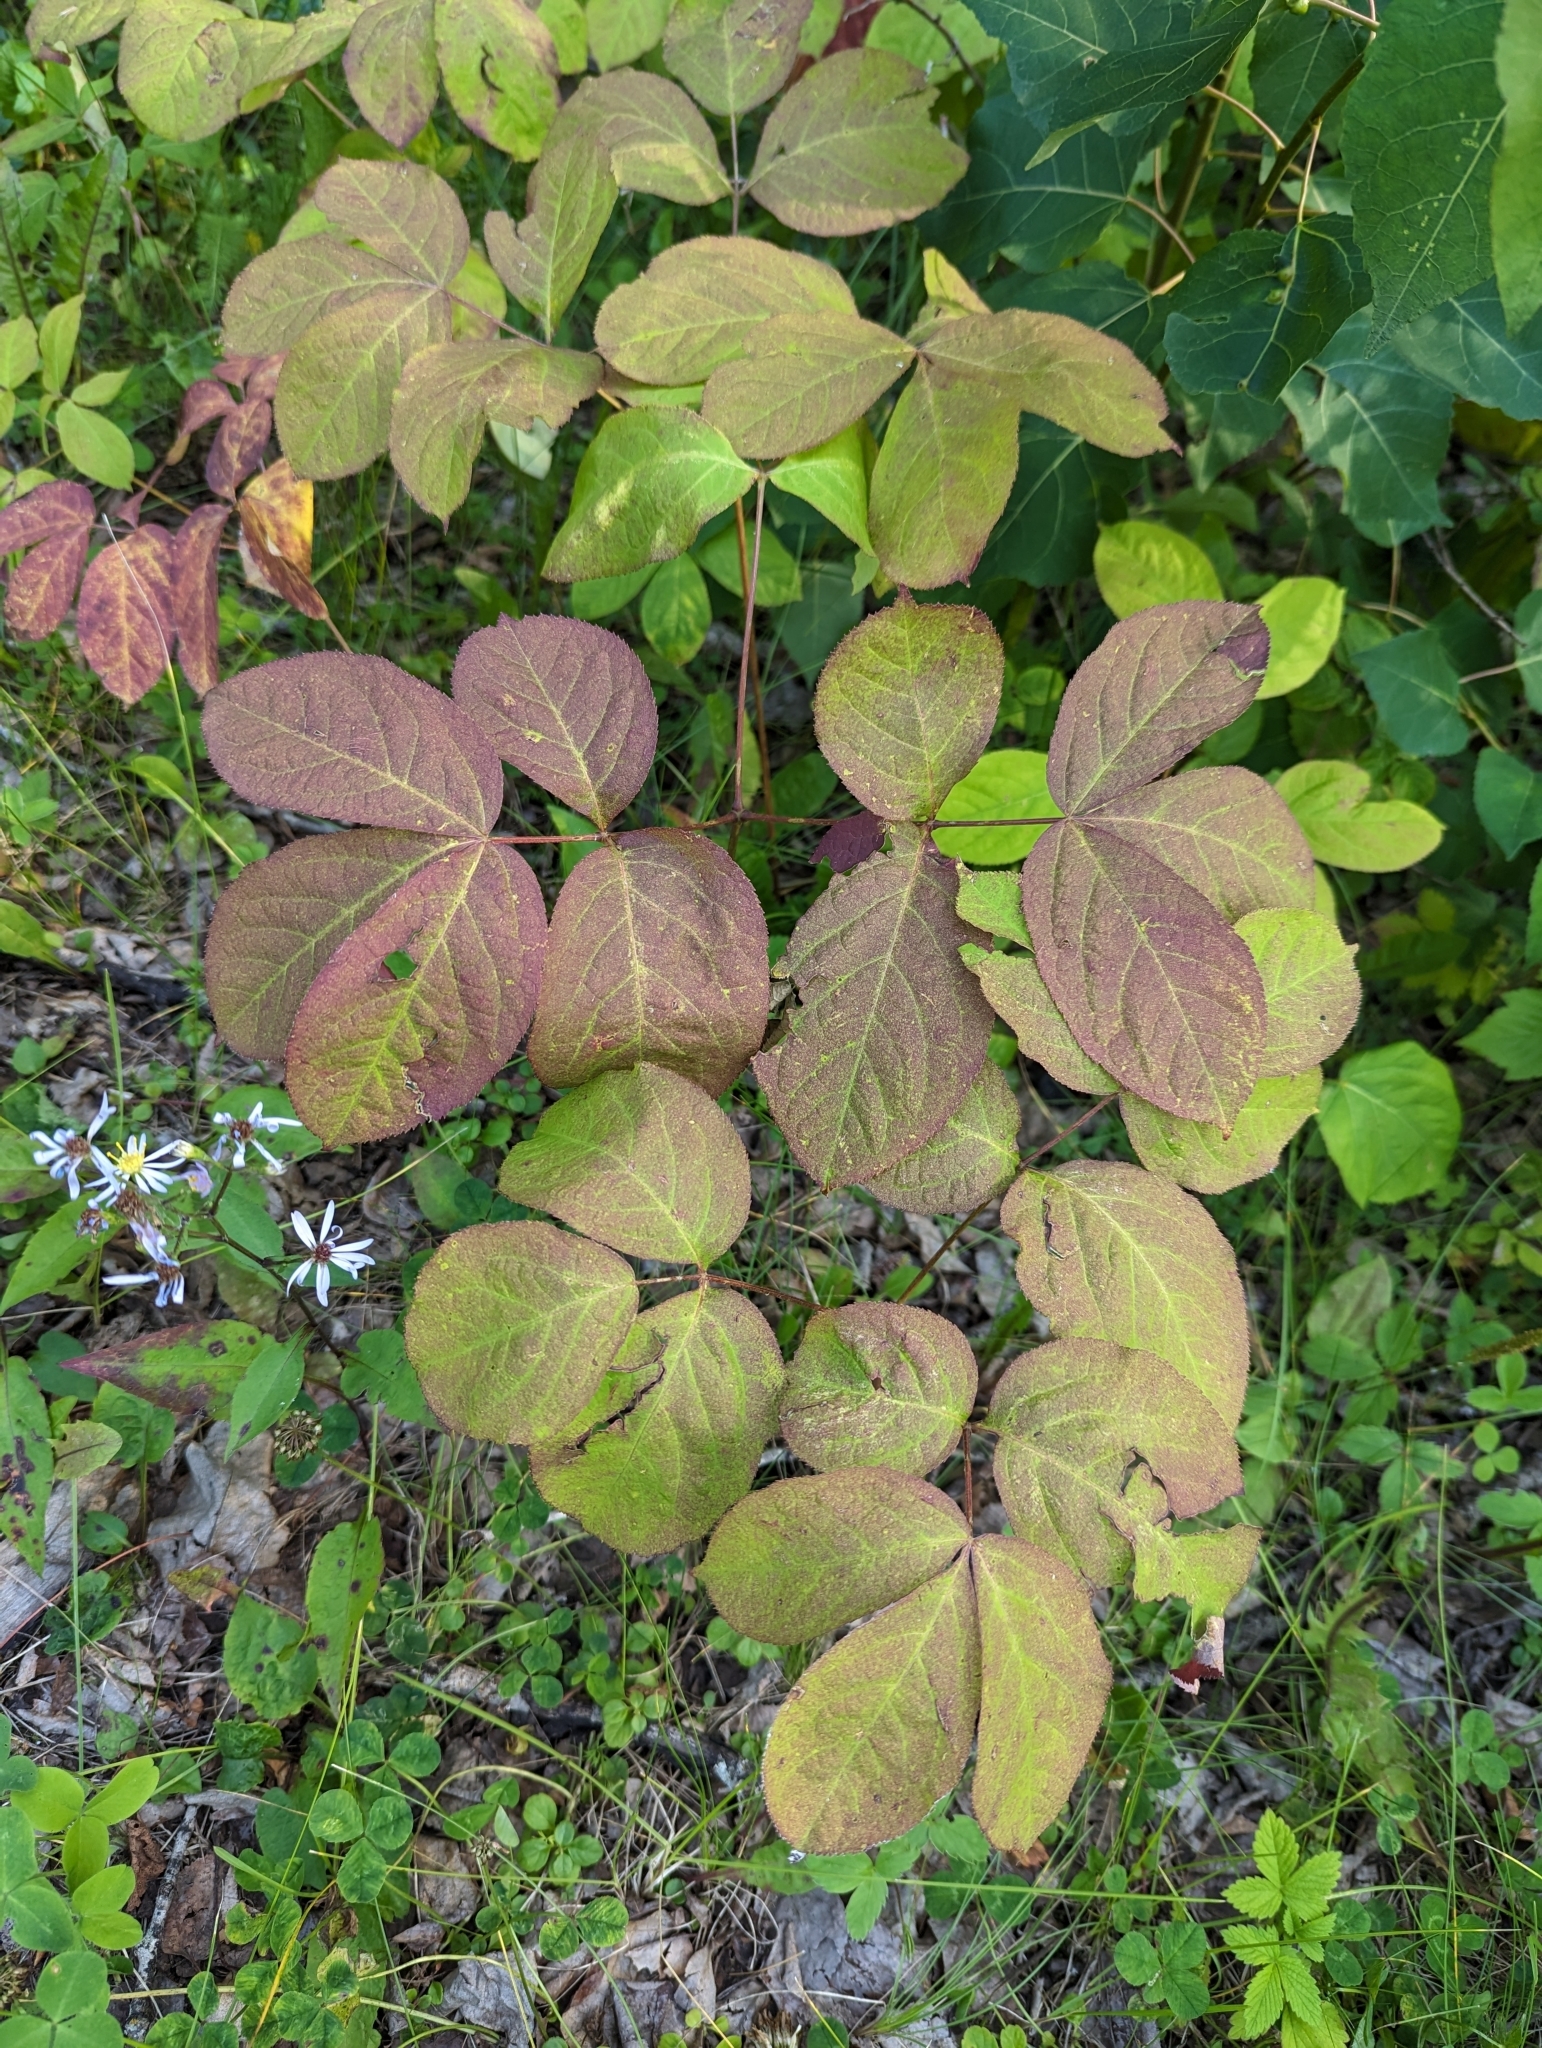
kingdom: Plantae
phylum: Tracheophyta
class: Magnoliopsida
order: Apiales
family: Araliaceae
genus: Aralia
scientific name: Aralia nudicaulis
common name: Wild sarsaparilla
